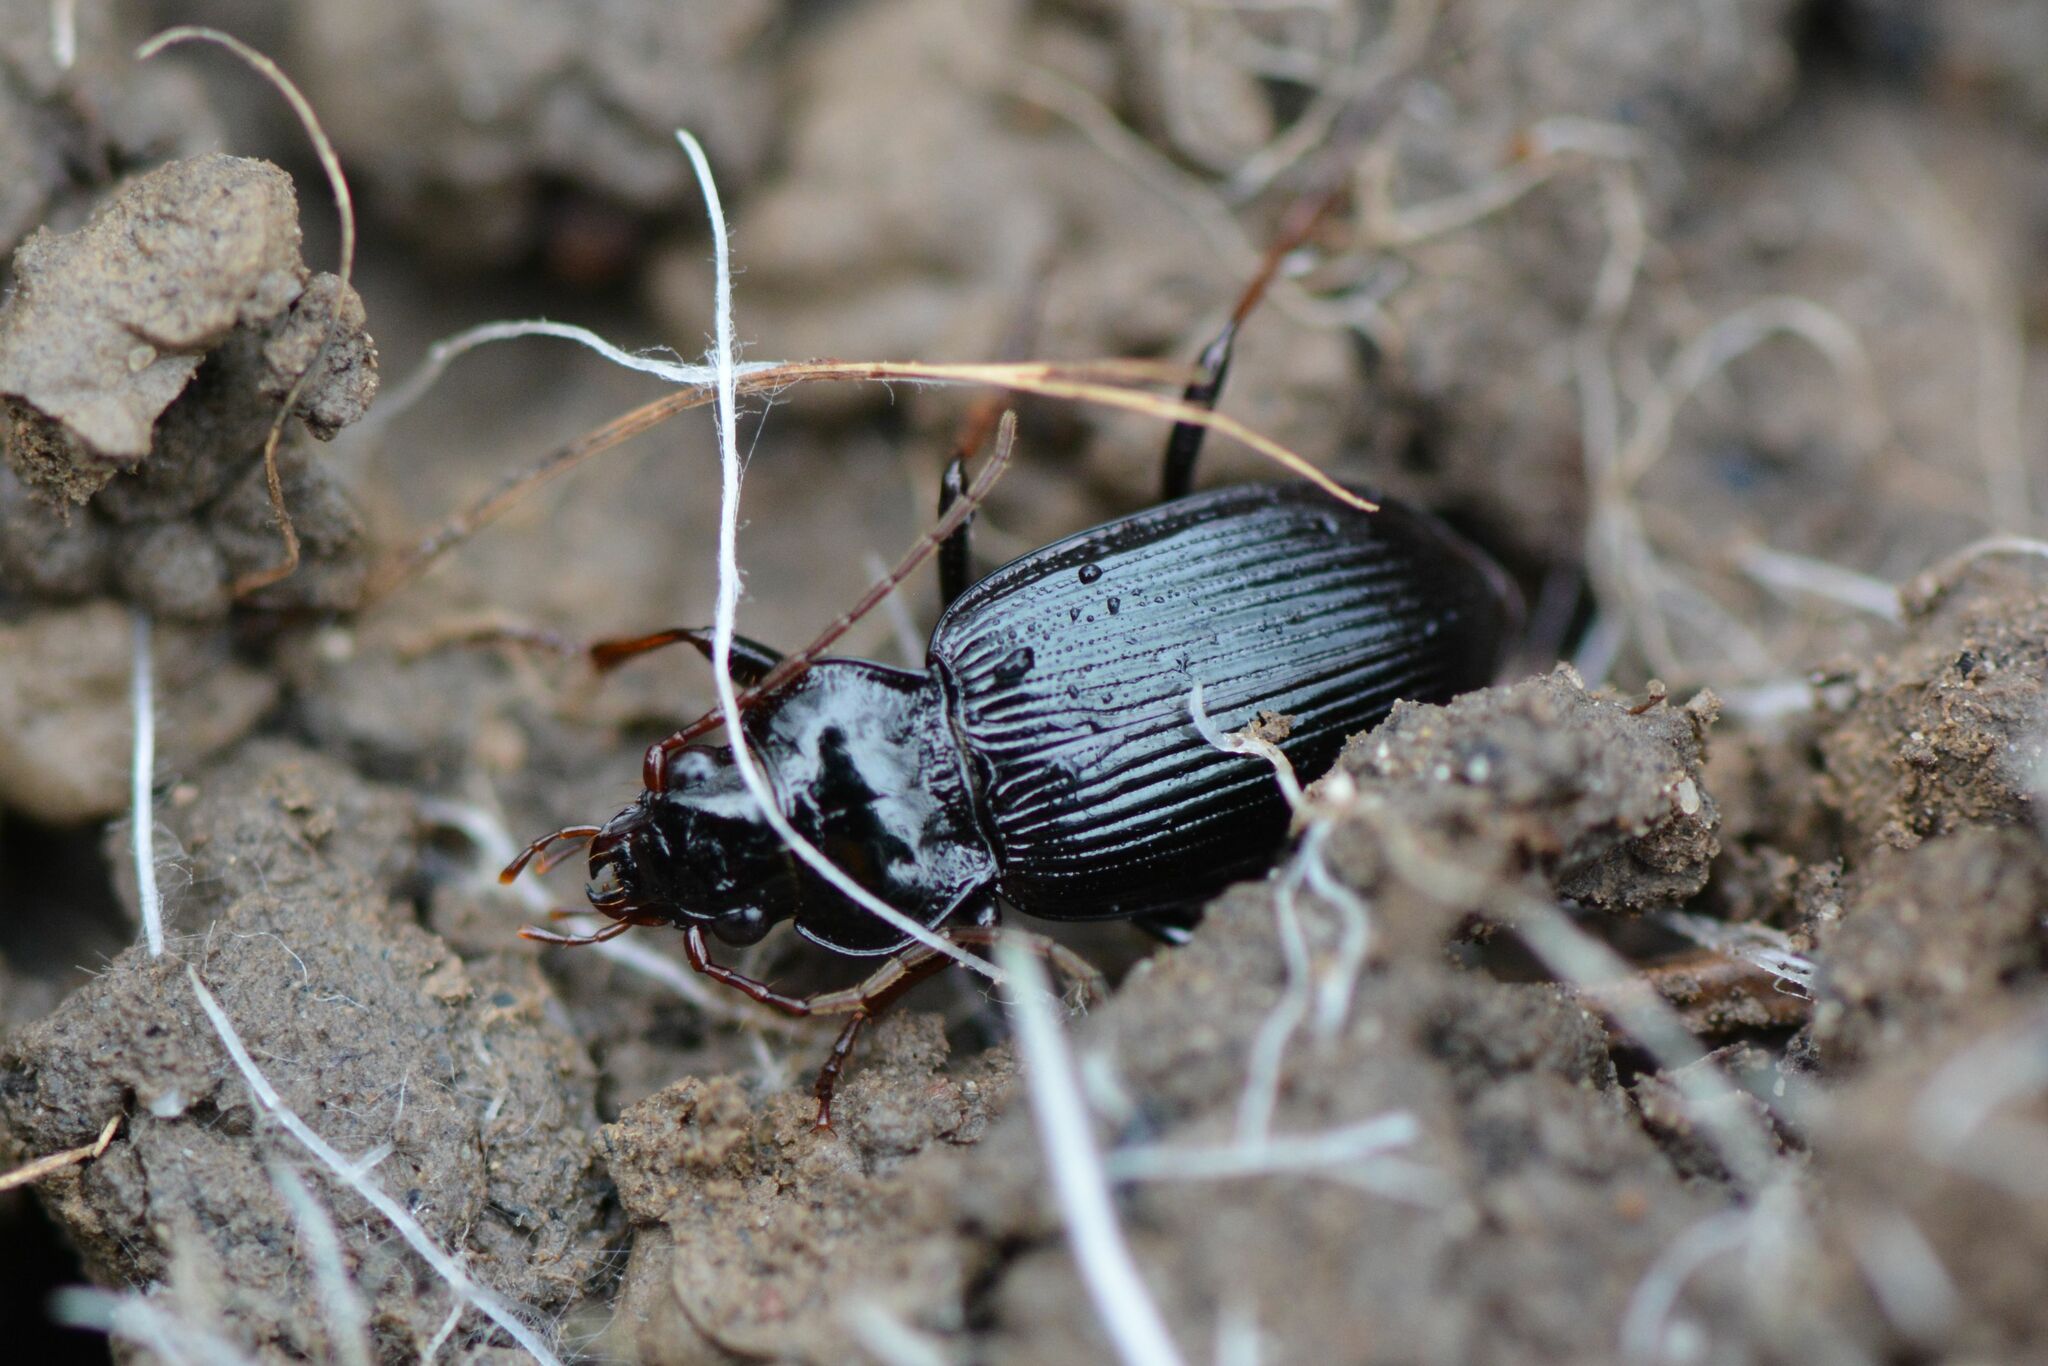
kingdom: Animalia
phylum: Arthropoda
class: Insecta
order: Coleoptera
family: Carabidae
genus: Nebria
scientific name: Nebria brevicollis
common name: Short-necked gazelle beetle
